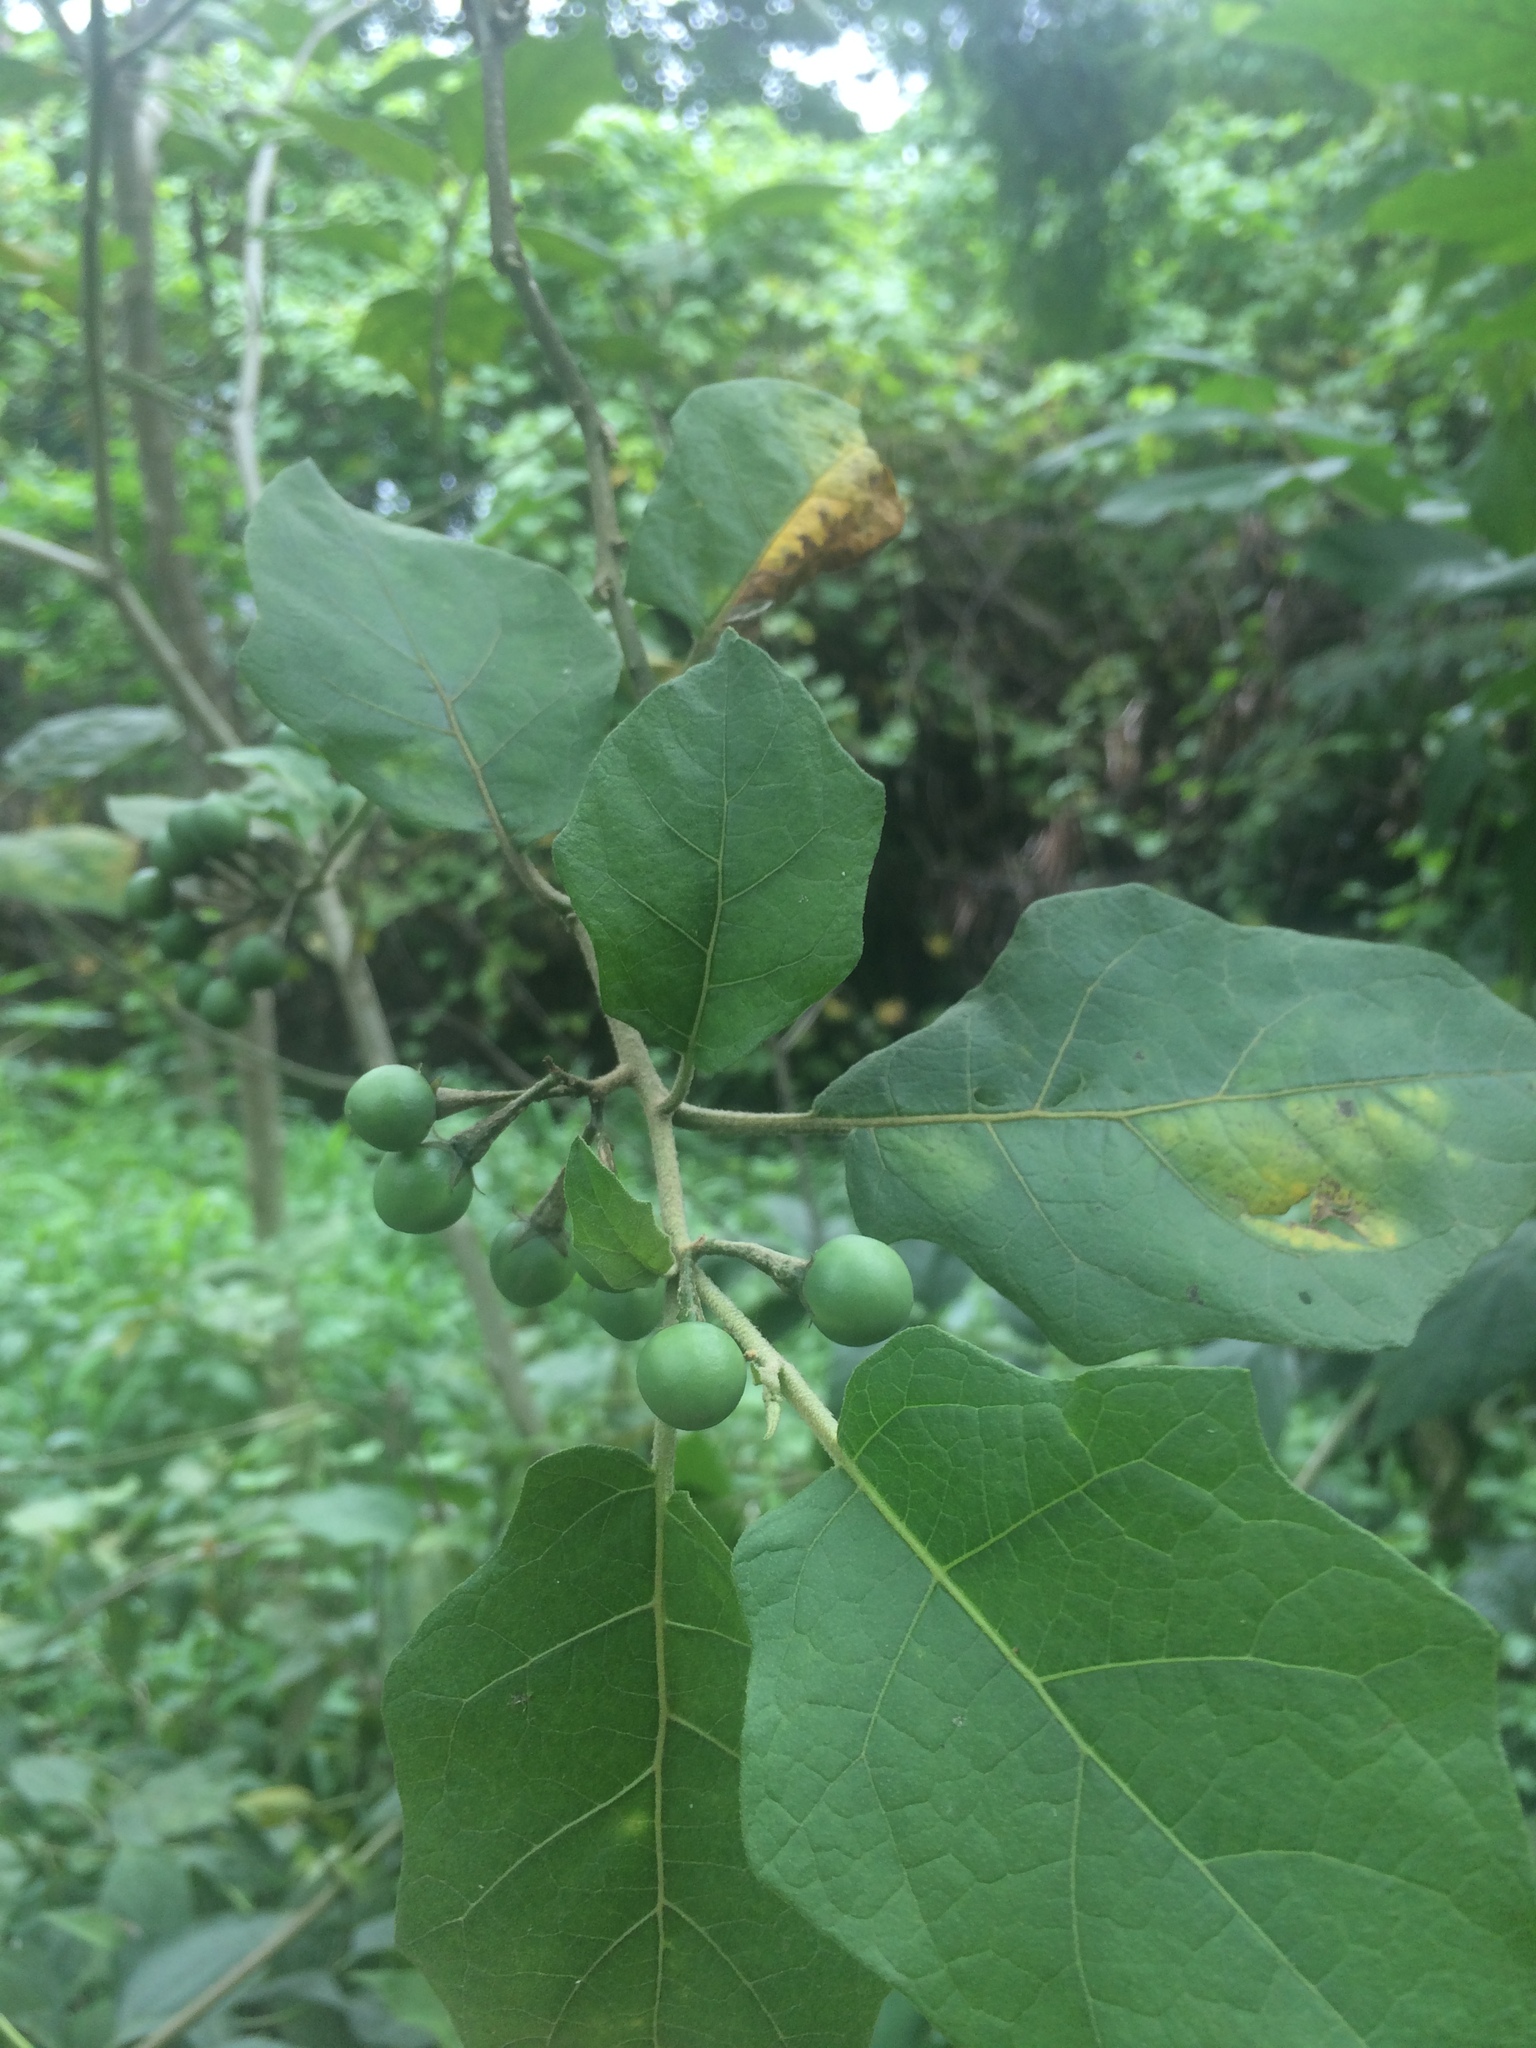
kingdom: Plantae
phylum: Tracheophyta
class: Magnoliopsida
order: Solanales
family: Solanaceae
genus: Solanum
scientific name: Solanum torvum
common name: Turkey berry
